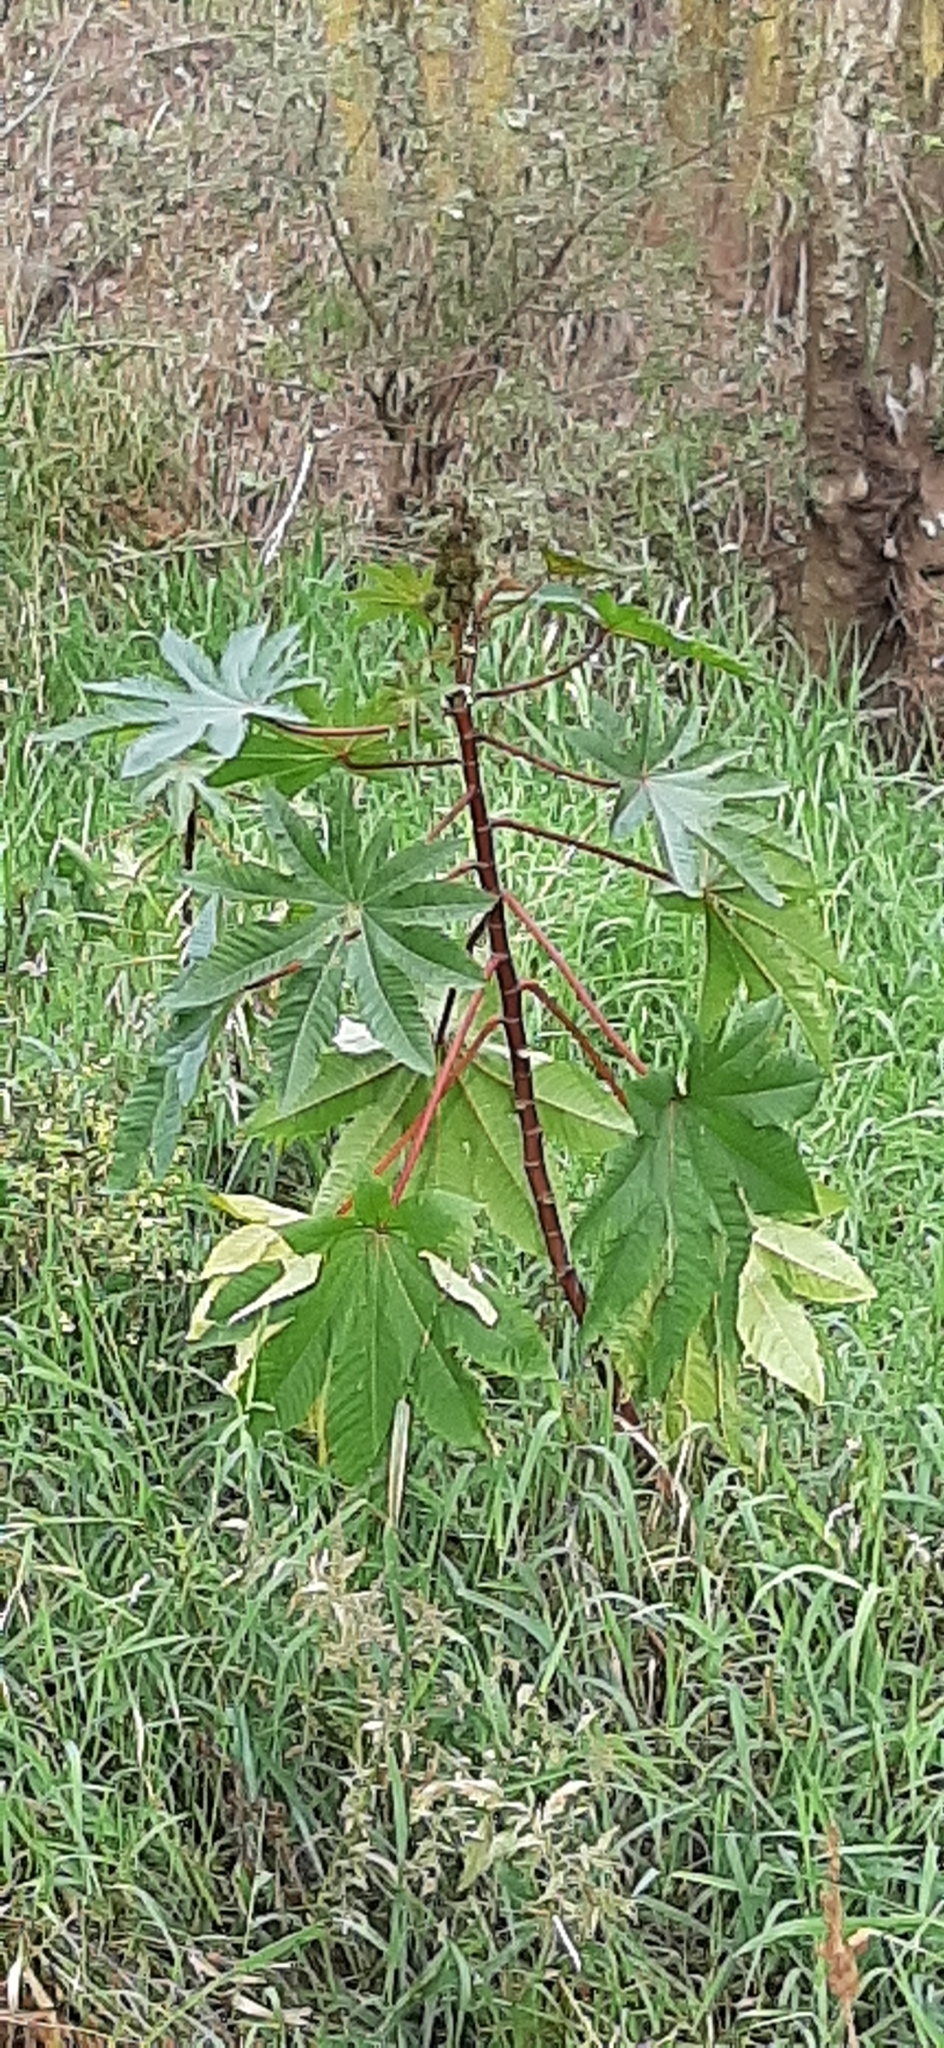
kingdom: Plantae
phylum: Tracheophyta
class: Magnoliopsida
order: Malpighiales
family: Euphorbiaceae
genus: Ricinus
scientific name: Ricinus communis
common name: Castor-oil-plant
